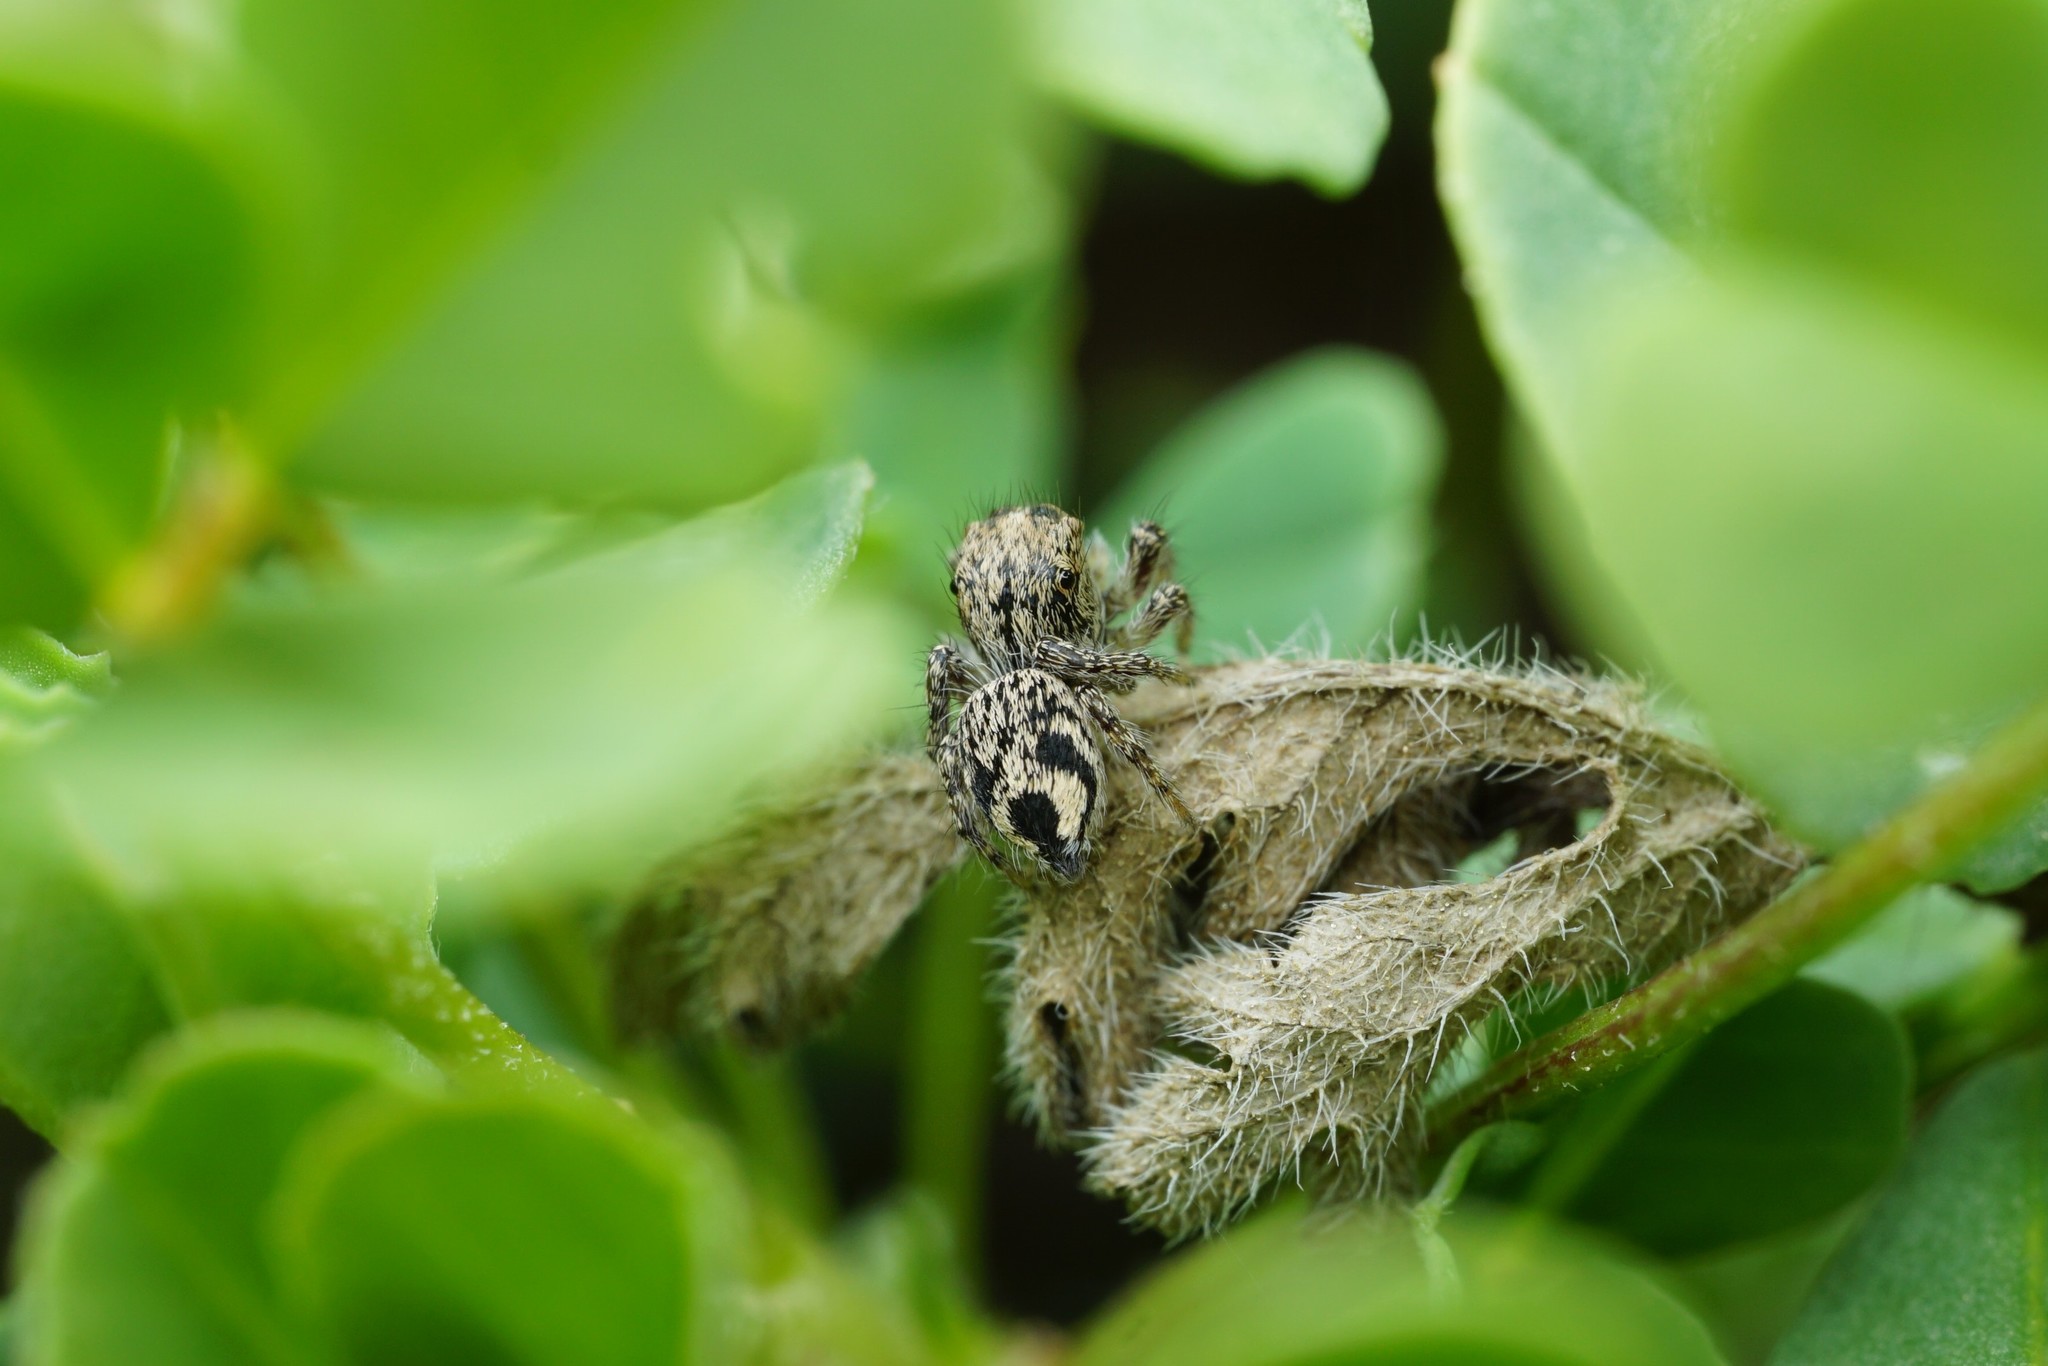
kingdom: Animalia
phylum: Arthropoda
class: Arachnida
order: Araneae
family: Salticidae
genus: Habronattus
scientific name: Habronattus hirsutus
